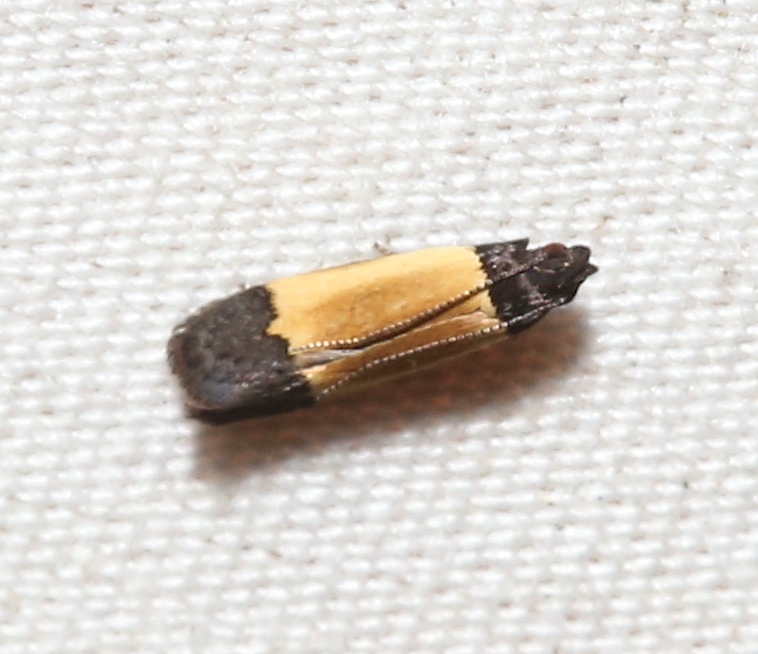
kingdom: Animalia
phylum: Arthropoda
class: Insecta
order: Lepidoptera
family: Gelechiidae
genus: Anacampsis
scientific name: Anacampsis coverdalella
